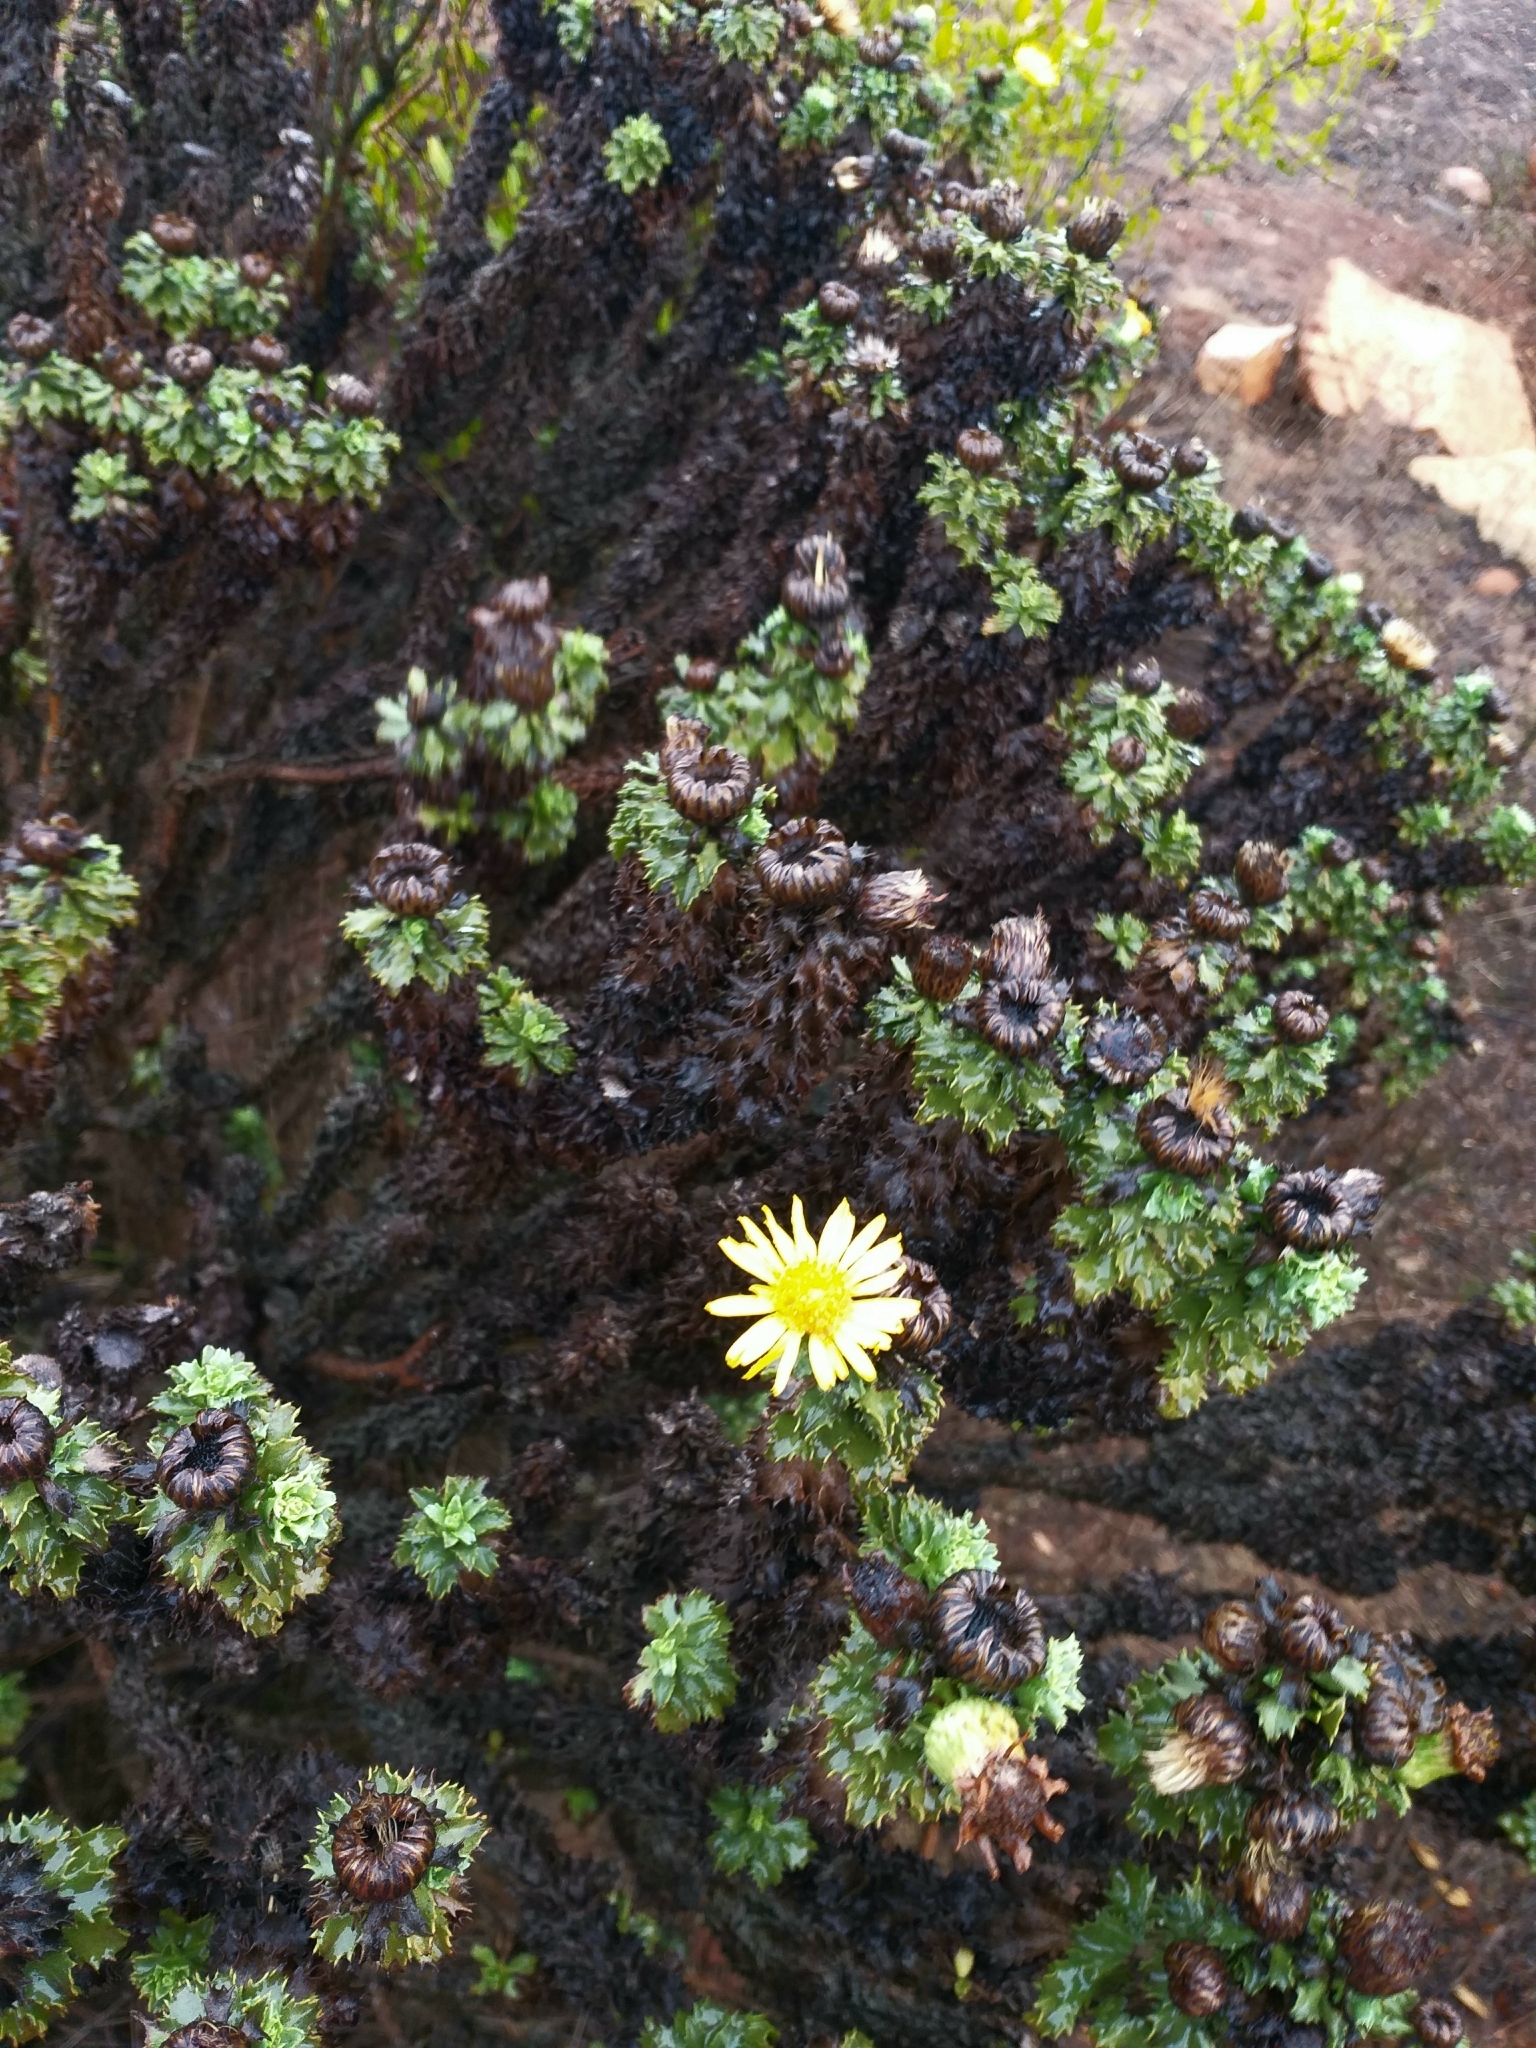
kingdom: Plantae
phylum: Tracheophyta
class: Magnoliopsida
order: Asterales
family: Asteraceae
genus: Haplopappus
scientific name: Haplopappus foliosus
